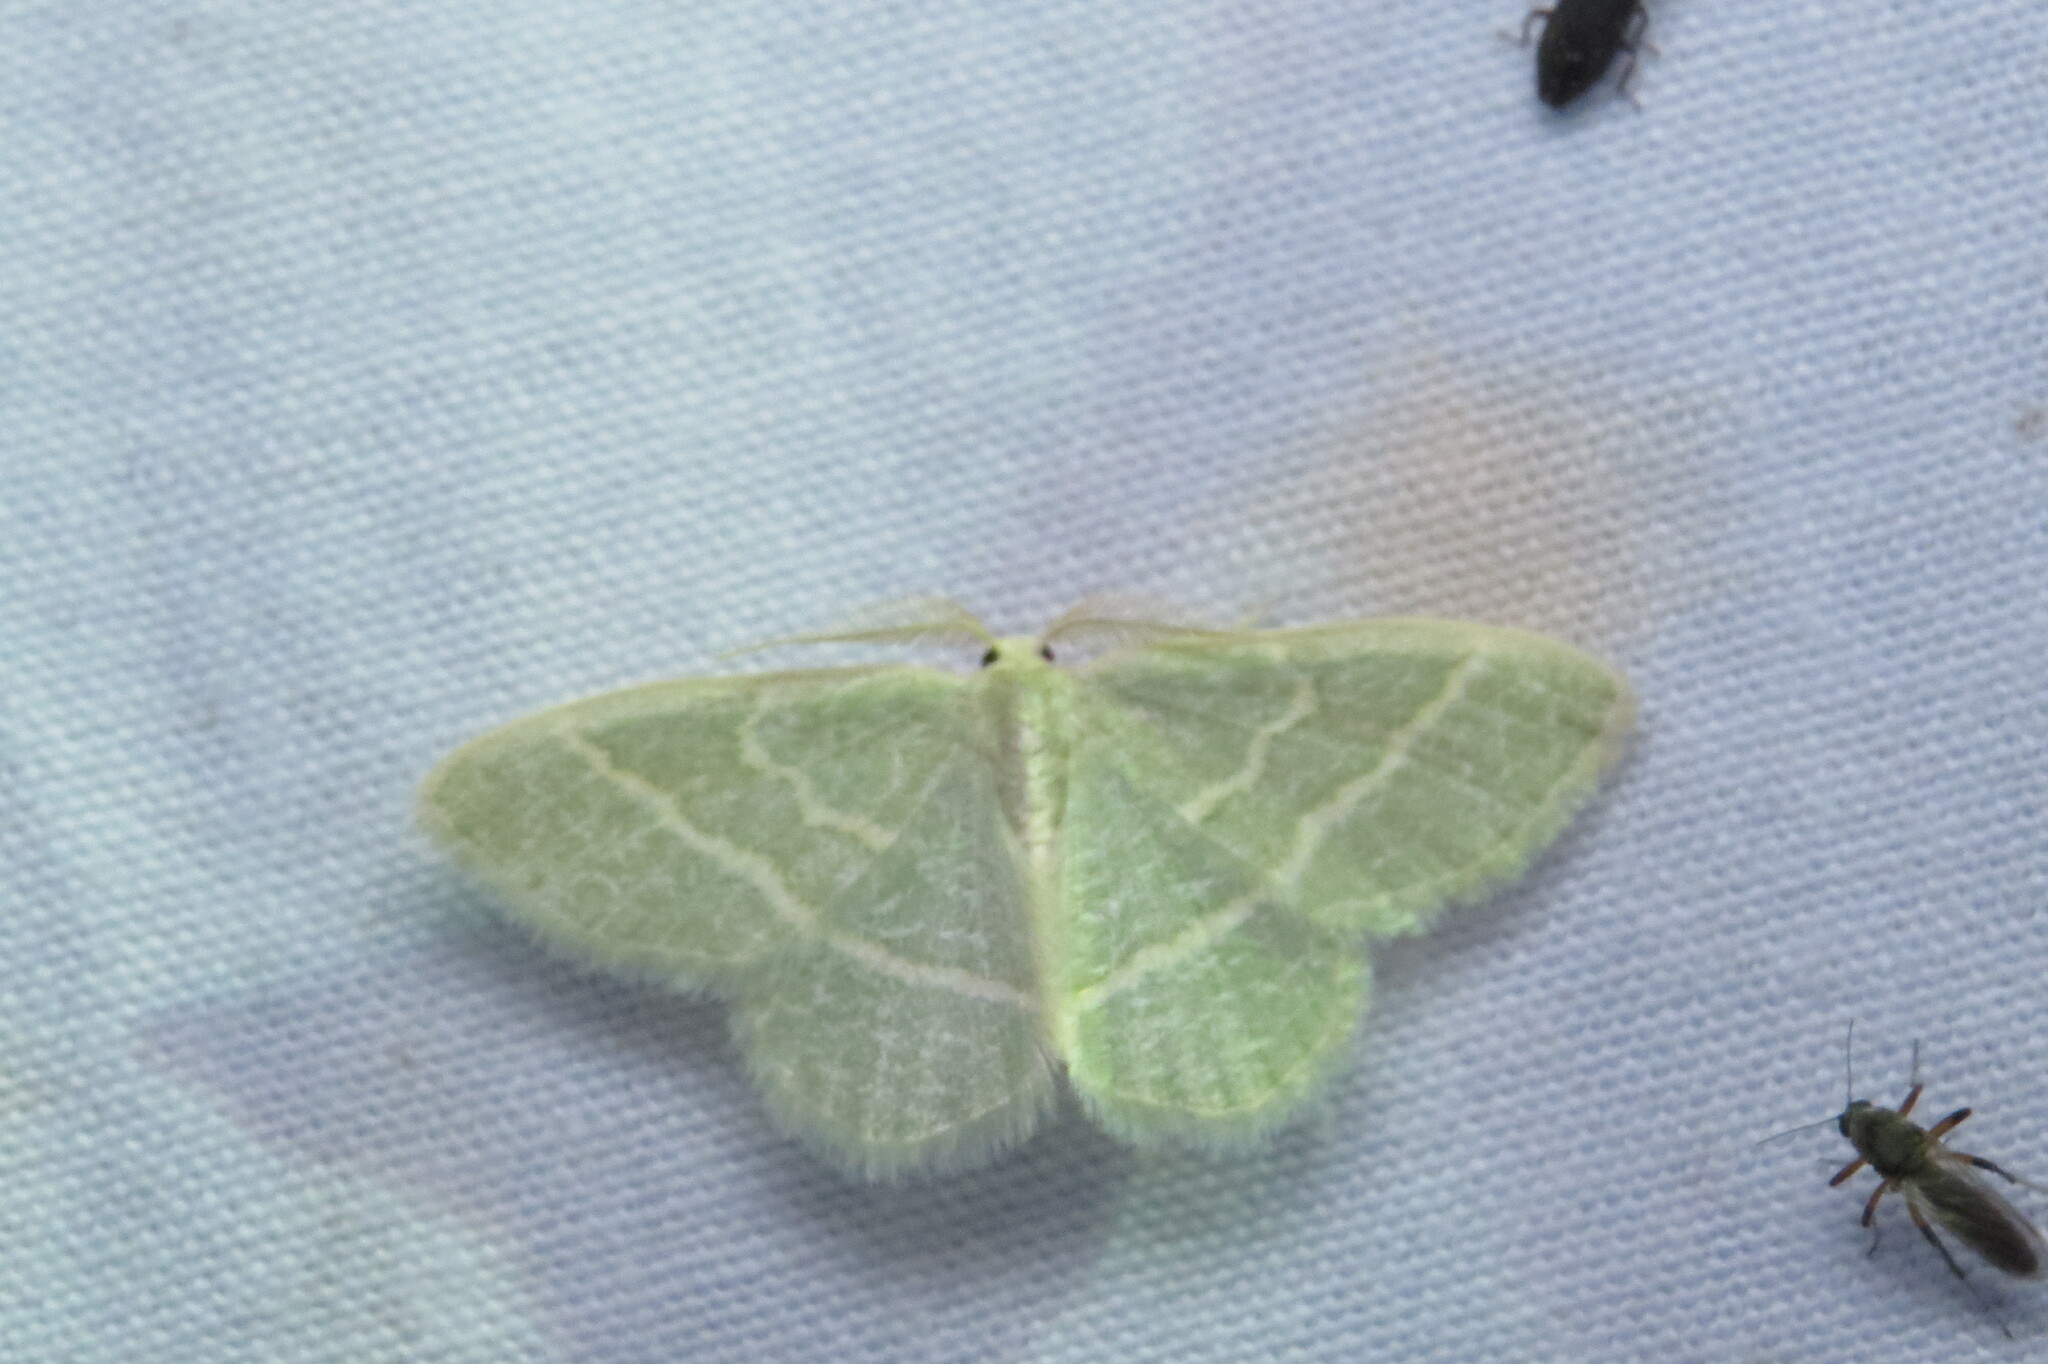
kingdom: Animalia
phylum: Arthropoda
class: Insecta
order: Lepidoptera
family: Geometridae
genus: Chlorochlamys
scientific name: Chlorochlamys chloroleucaria
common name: Blackberry looper
